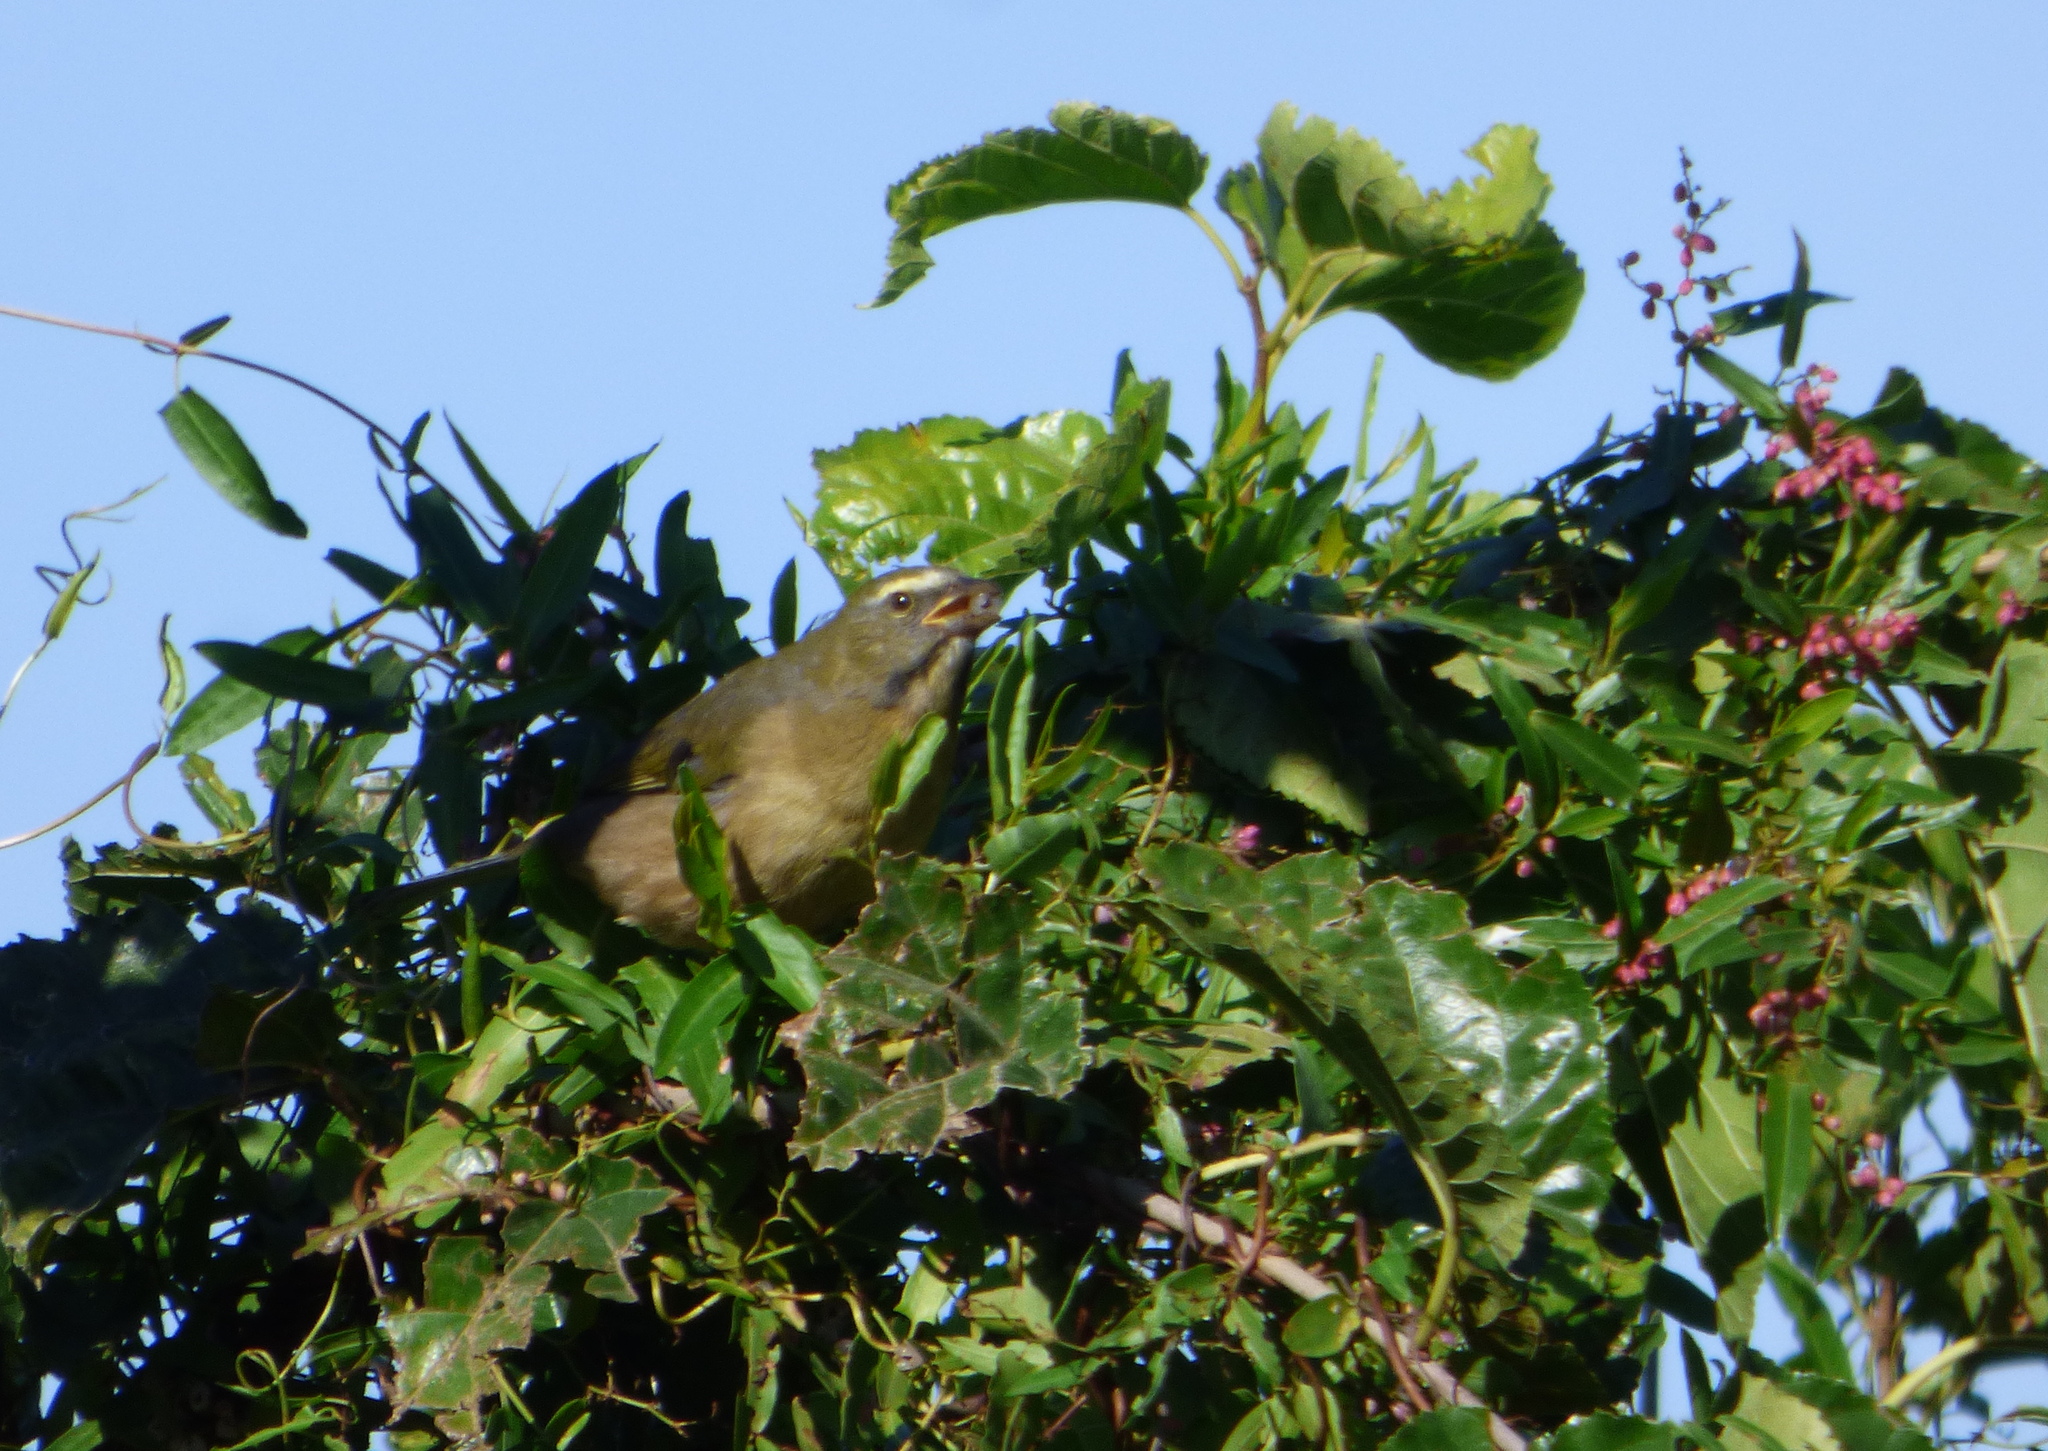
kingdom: Animalia
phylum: Chordata
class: Aves
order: Passeriformes
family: Thraupidae
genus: Saltator
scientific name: Saltator coerulescens
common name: Grayish saltator
